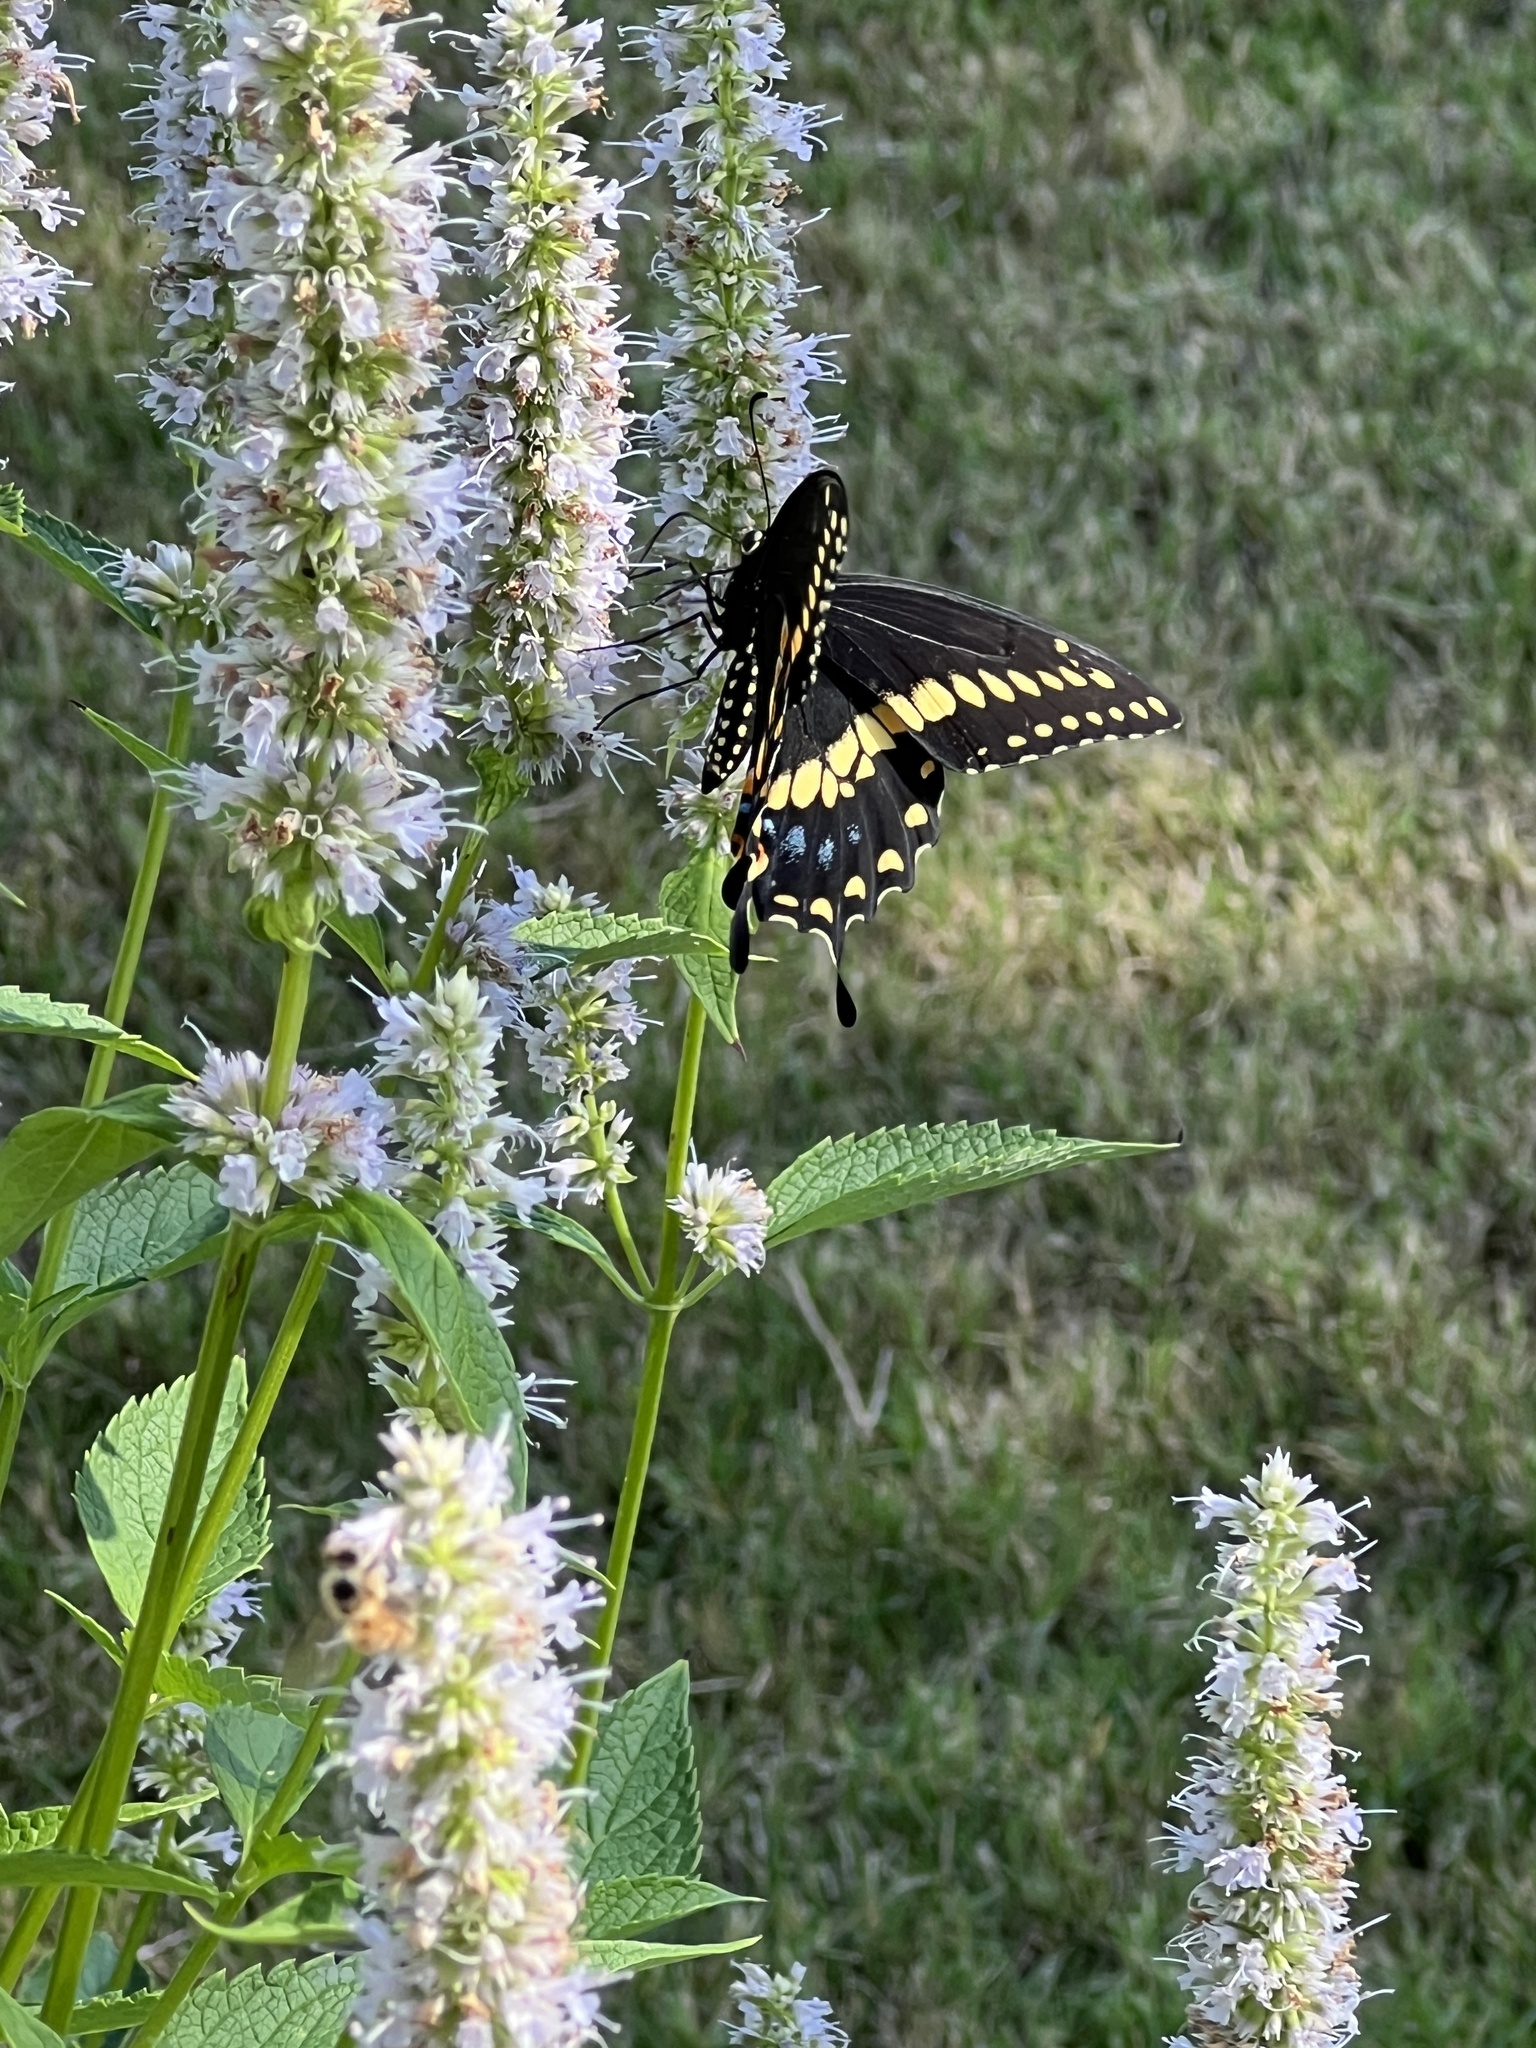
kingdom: Animalia
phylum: Arthropoda
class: Insecta
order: Lepidoptera
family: Papilionidae
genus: Papilio
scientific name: Papilio polyxenes
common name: Black swallowtail
